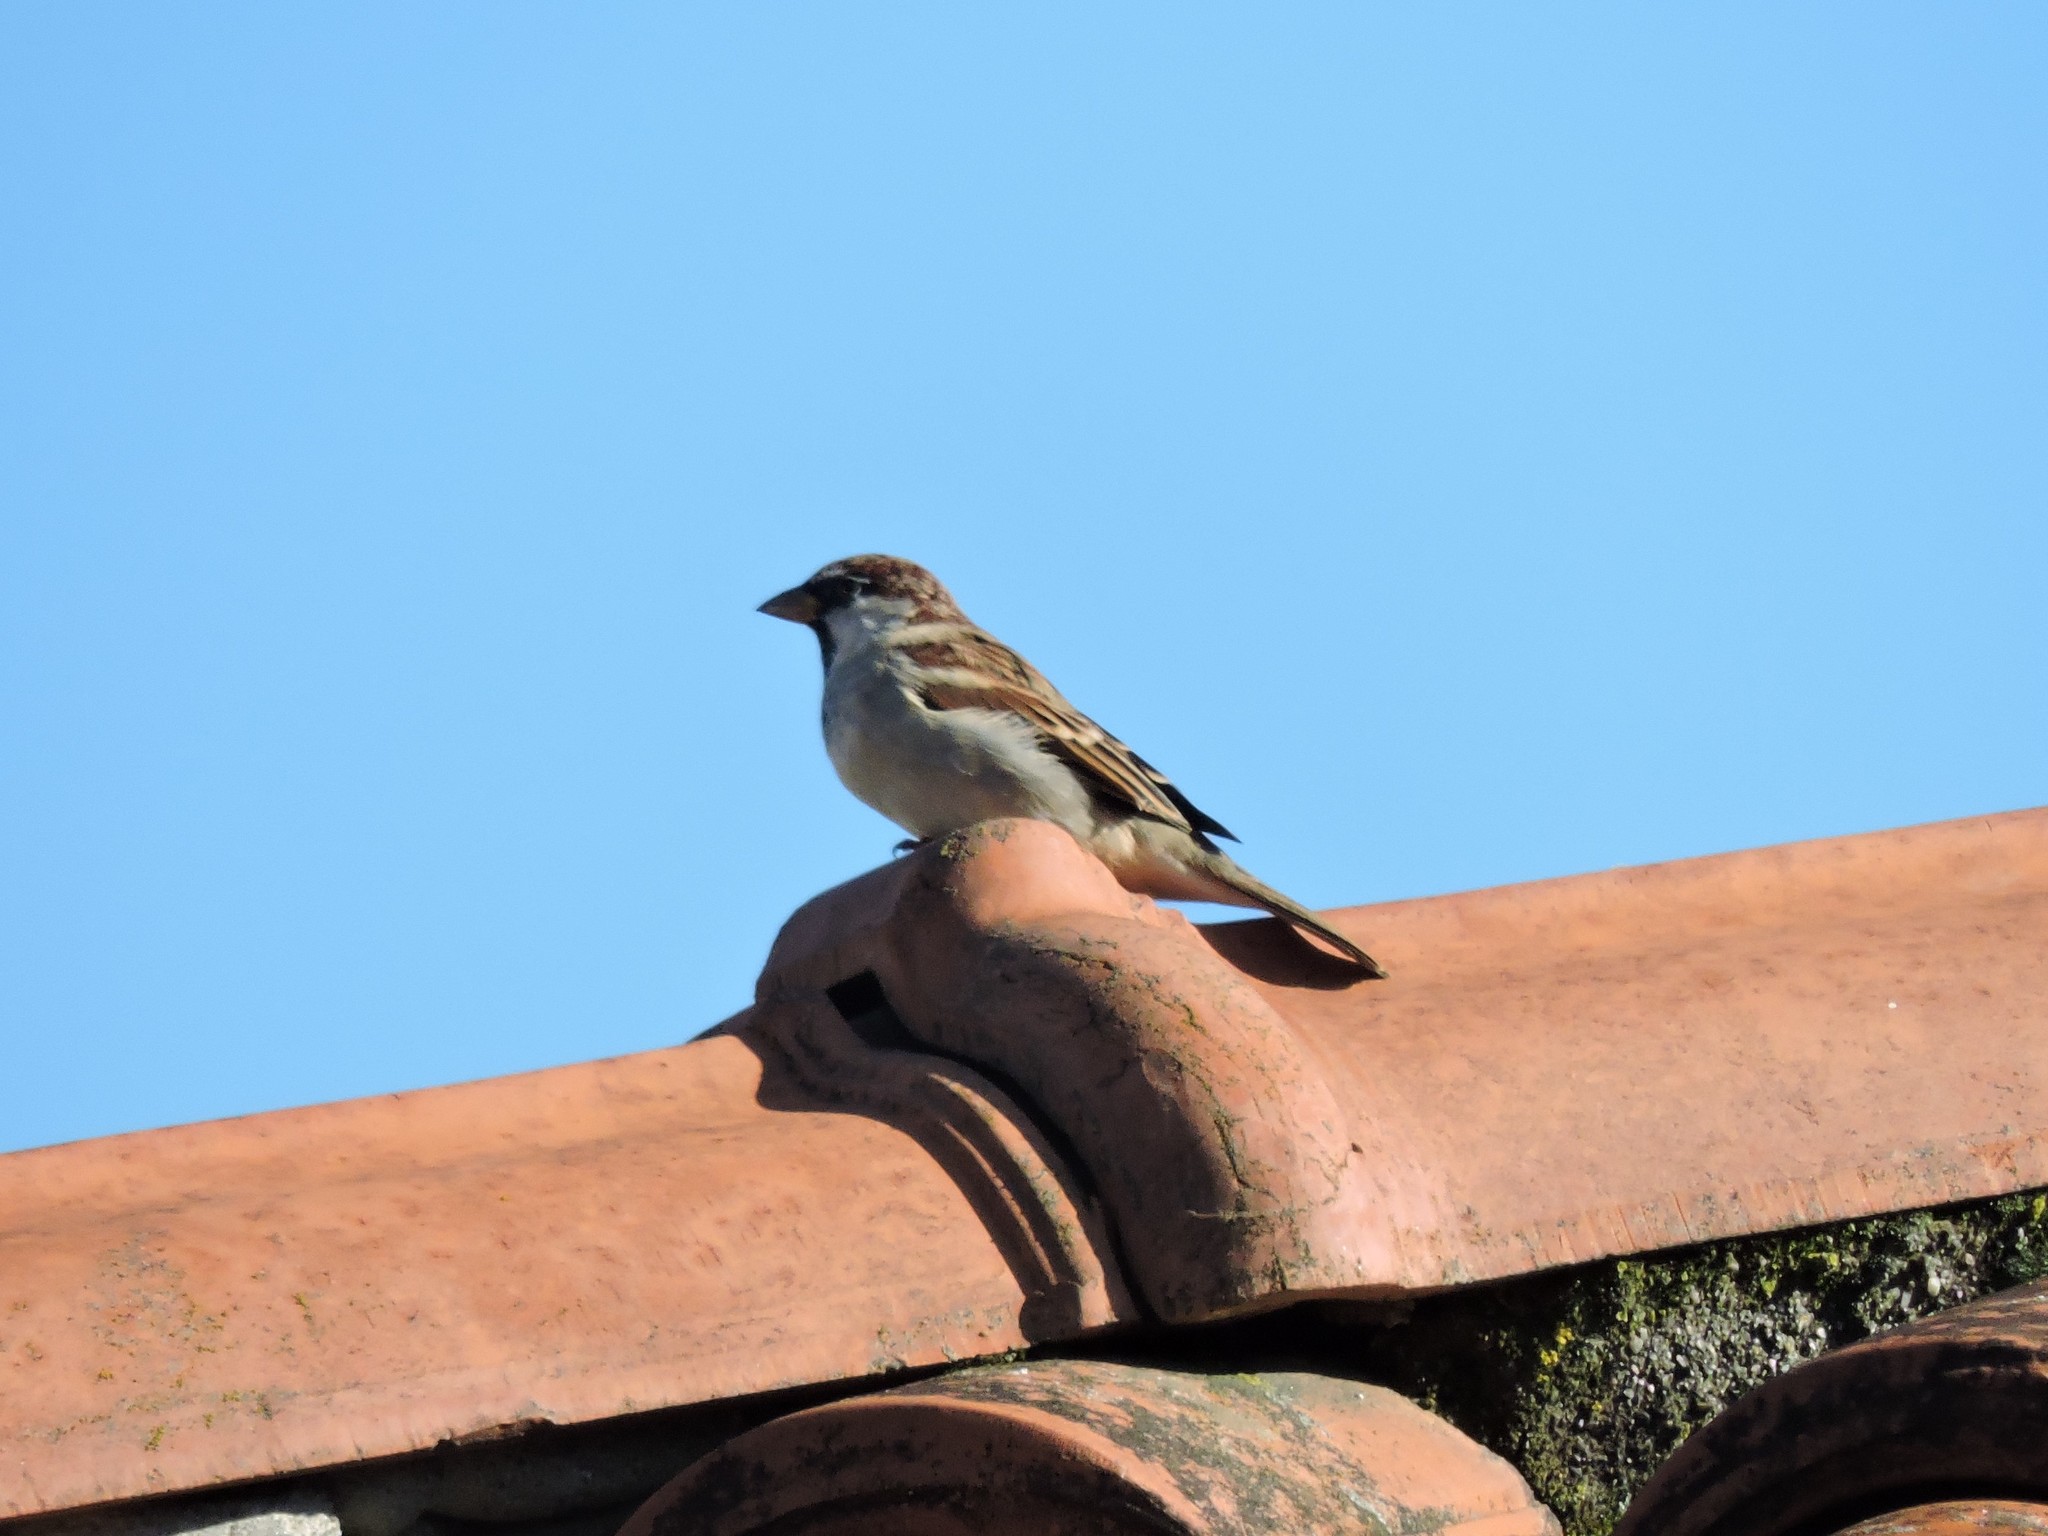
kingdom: Animalia
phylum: Chordata
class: Aves
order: Passeriformes
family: Passeridae
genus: Passer
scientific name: Passer italiae
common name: Italian sparrow
